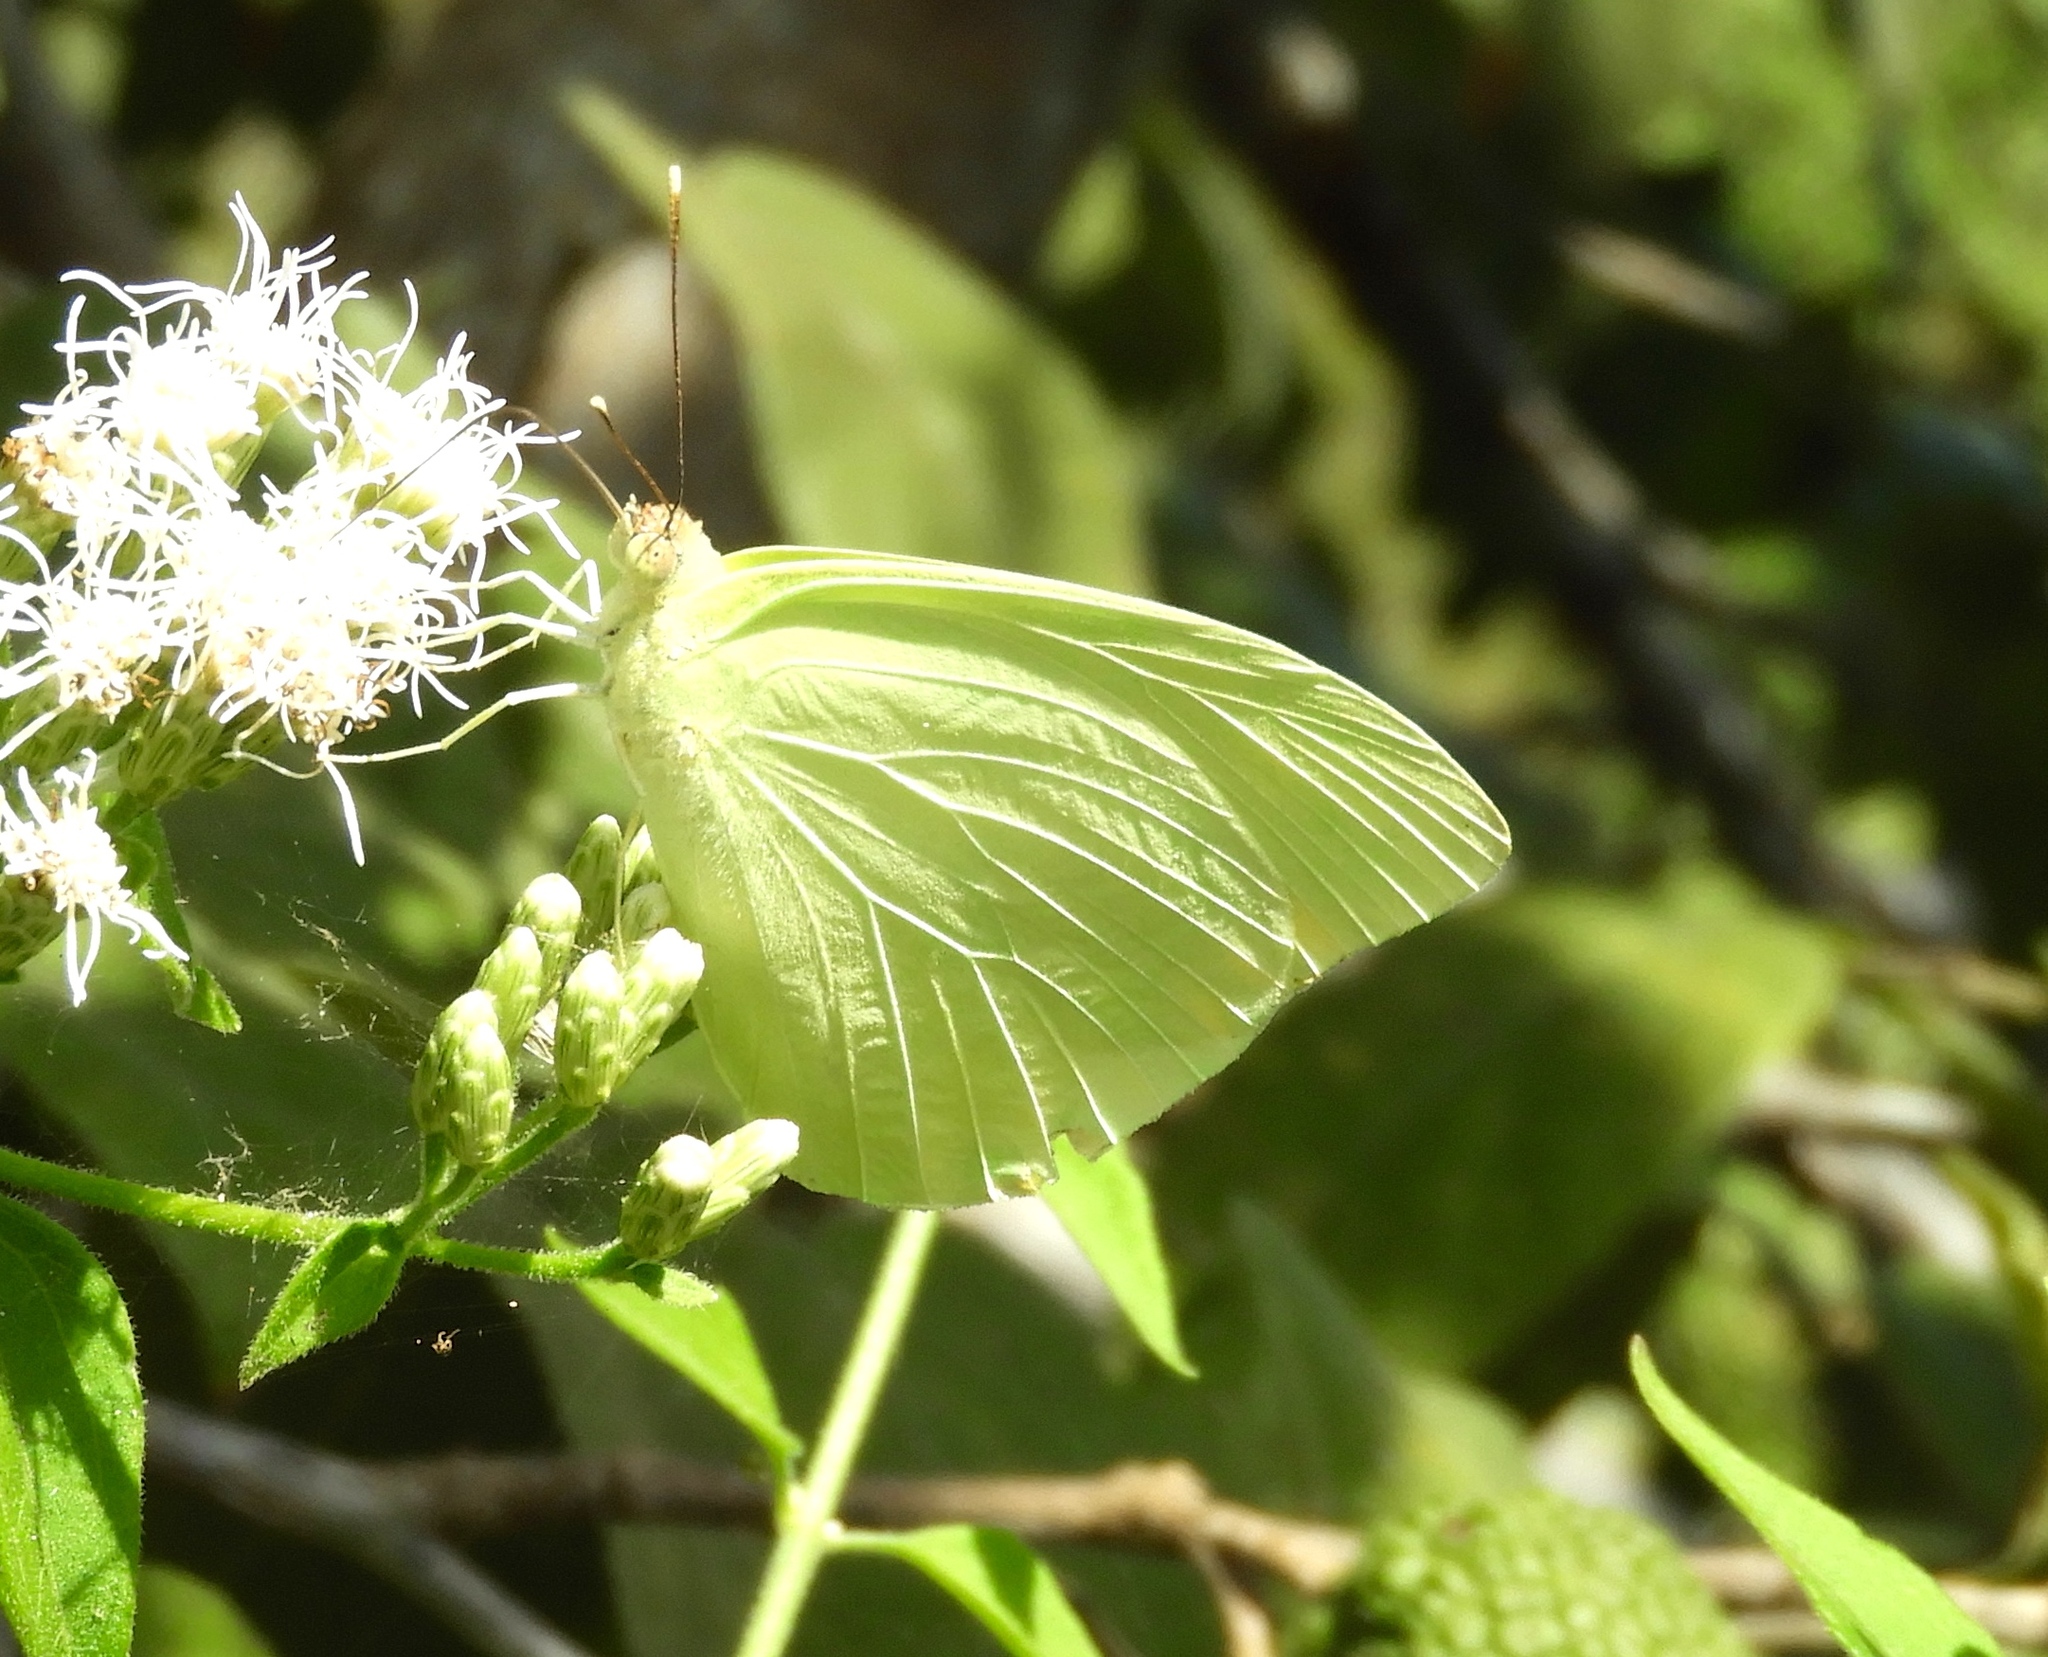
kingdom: Animalia
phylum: Arthropoda
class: Insecta
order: Lepidoptera
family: Pieridae
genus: Kricogonia
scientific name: Kricogonia lyside
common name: Guayacan sulphur,
